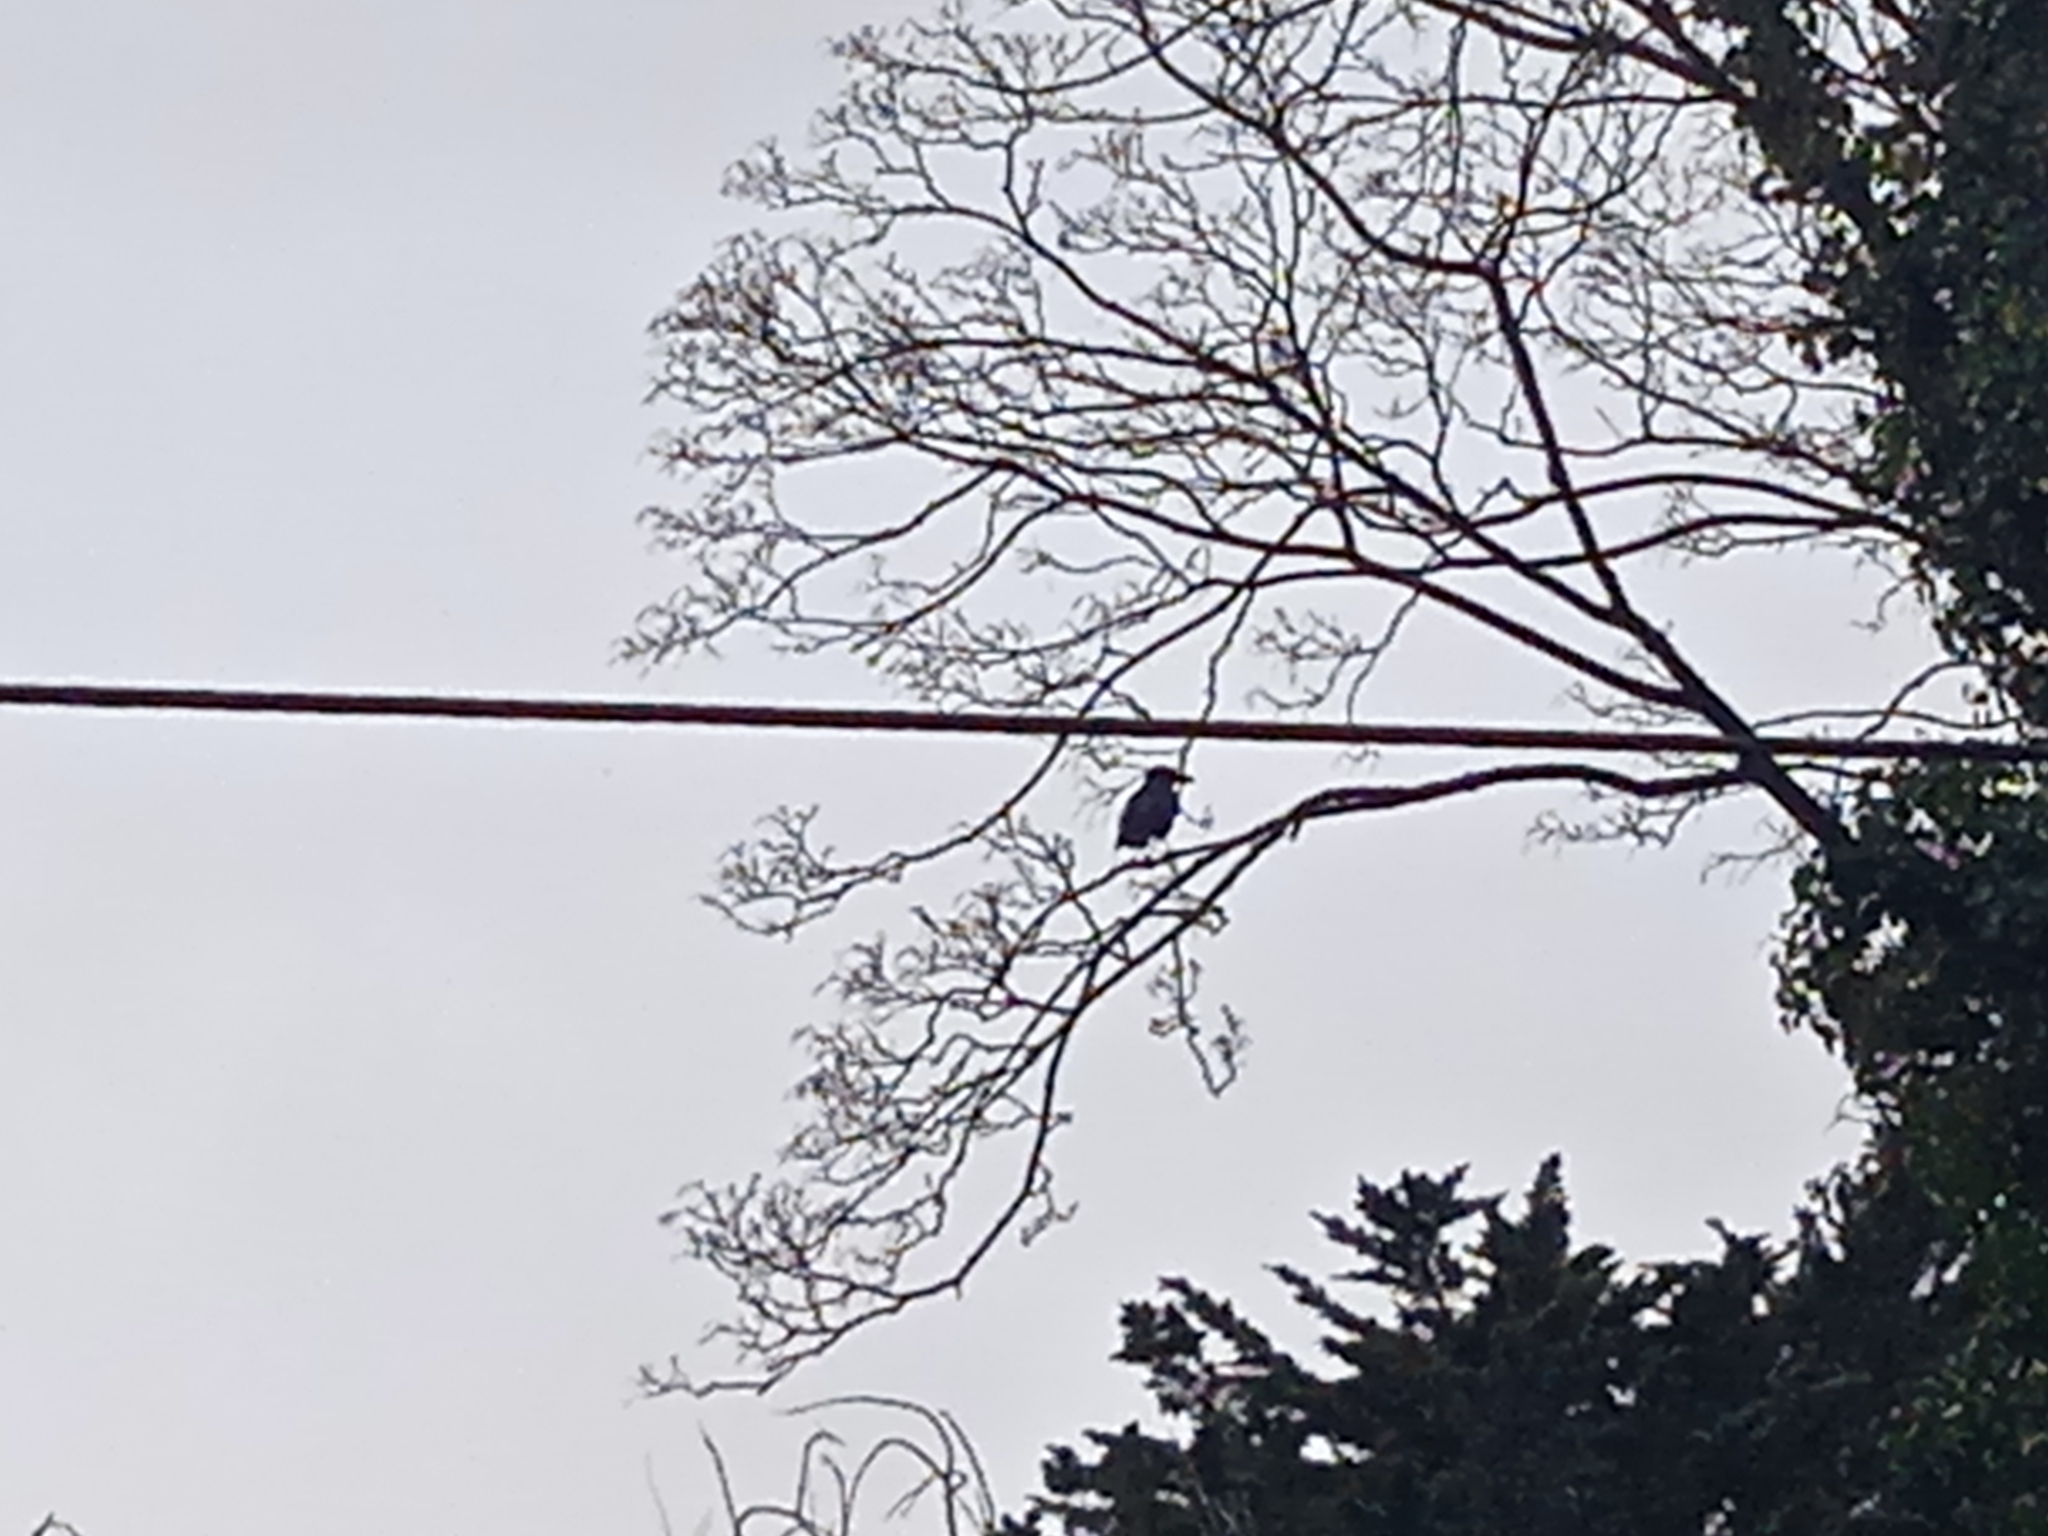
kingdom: Animalia
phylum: Chordata
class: Aves
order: Passeriformes
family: Corvidae
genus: Corvus
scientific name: Corvus corone
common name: Carrion crow
